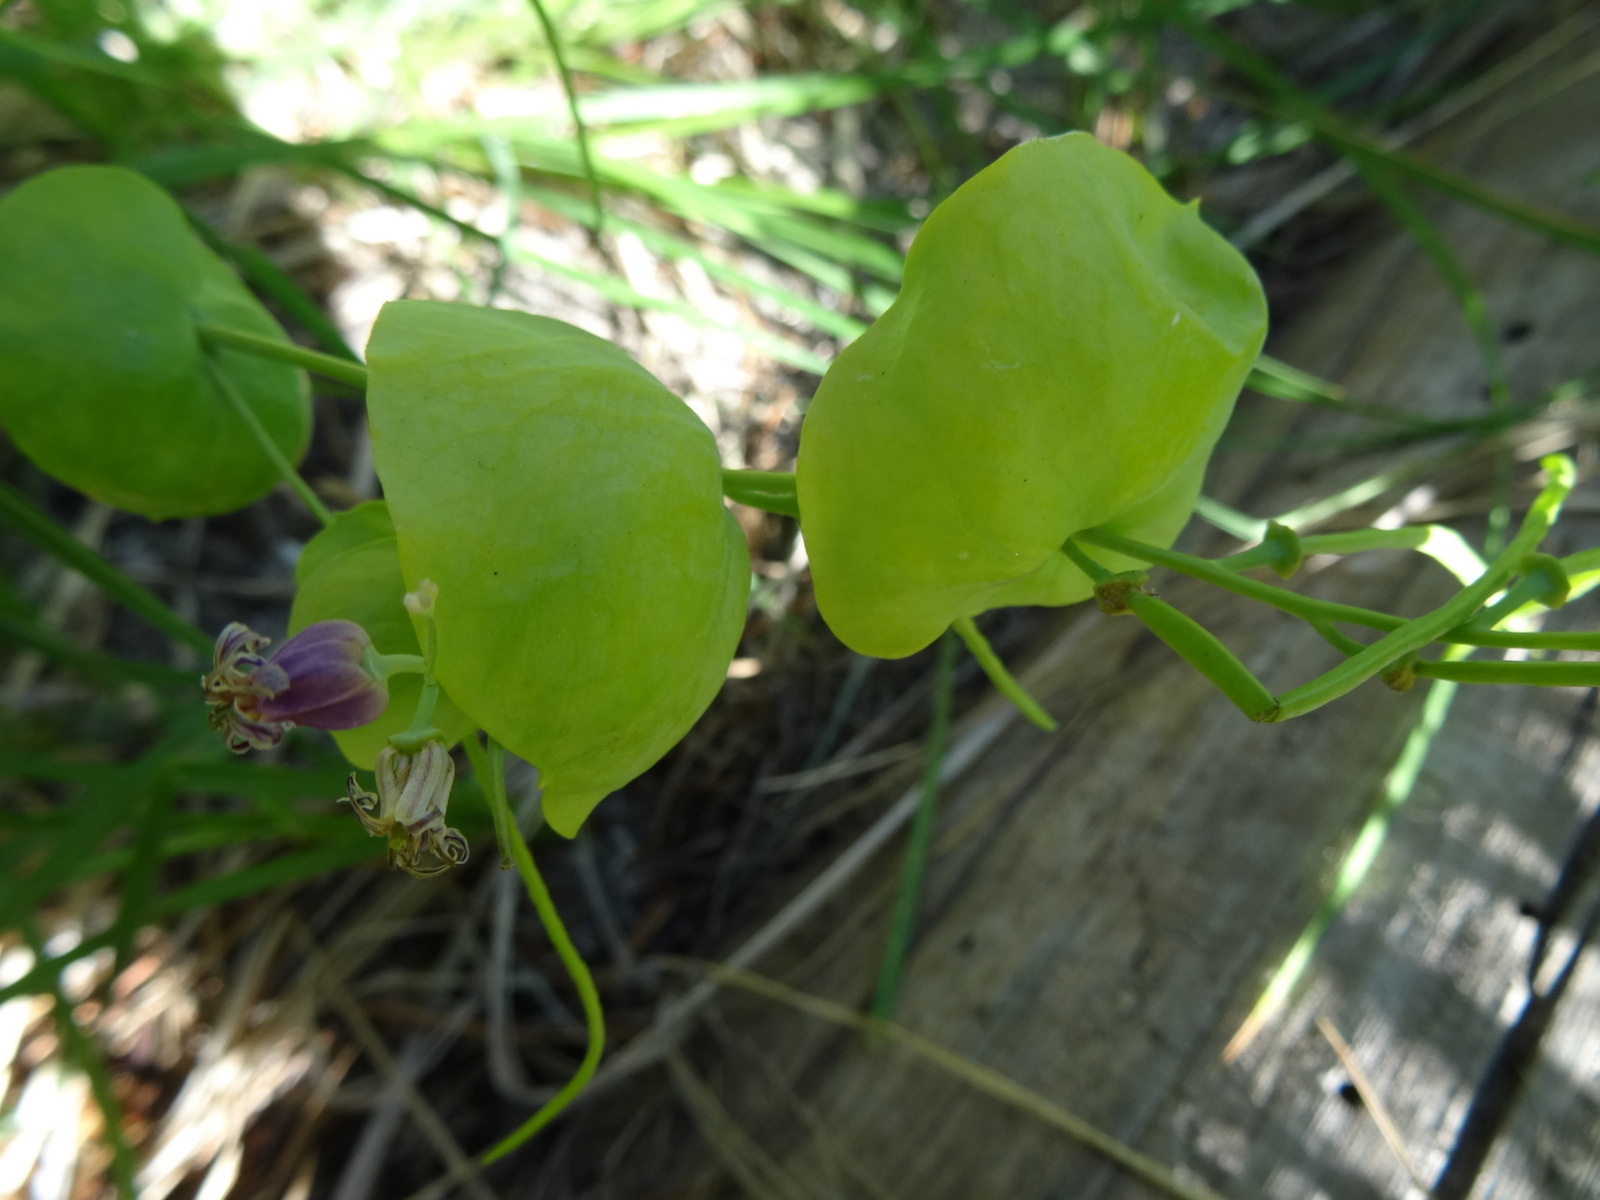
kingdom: Plantae
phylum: Tracheophyta
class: Magnoliopsida
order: Brassicales
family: Brassicaceae
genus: Streptanthus
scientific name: Streptanthus tortuosus
